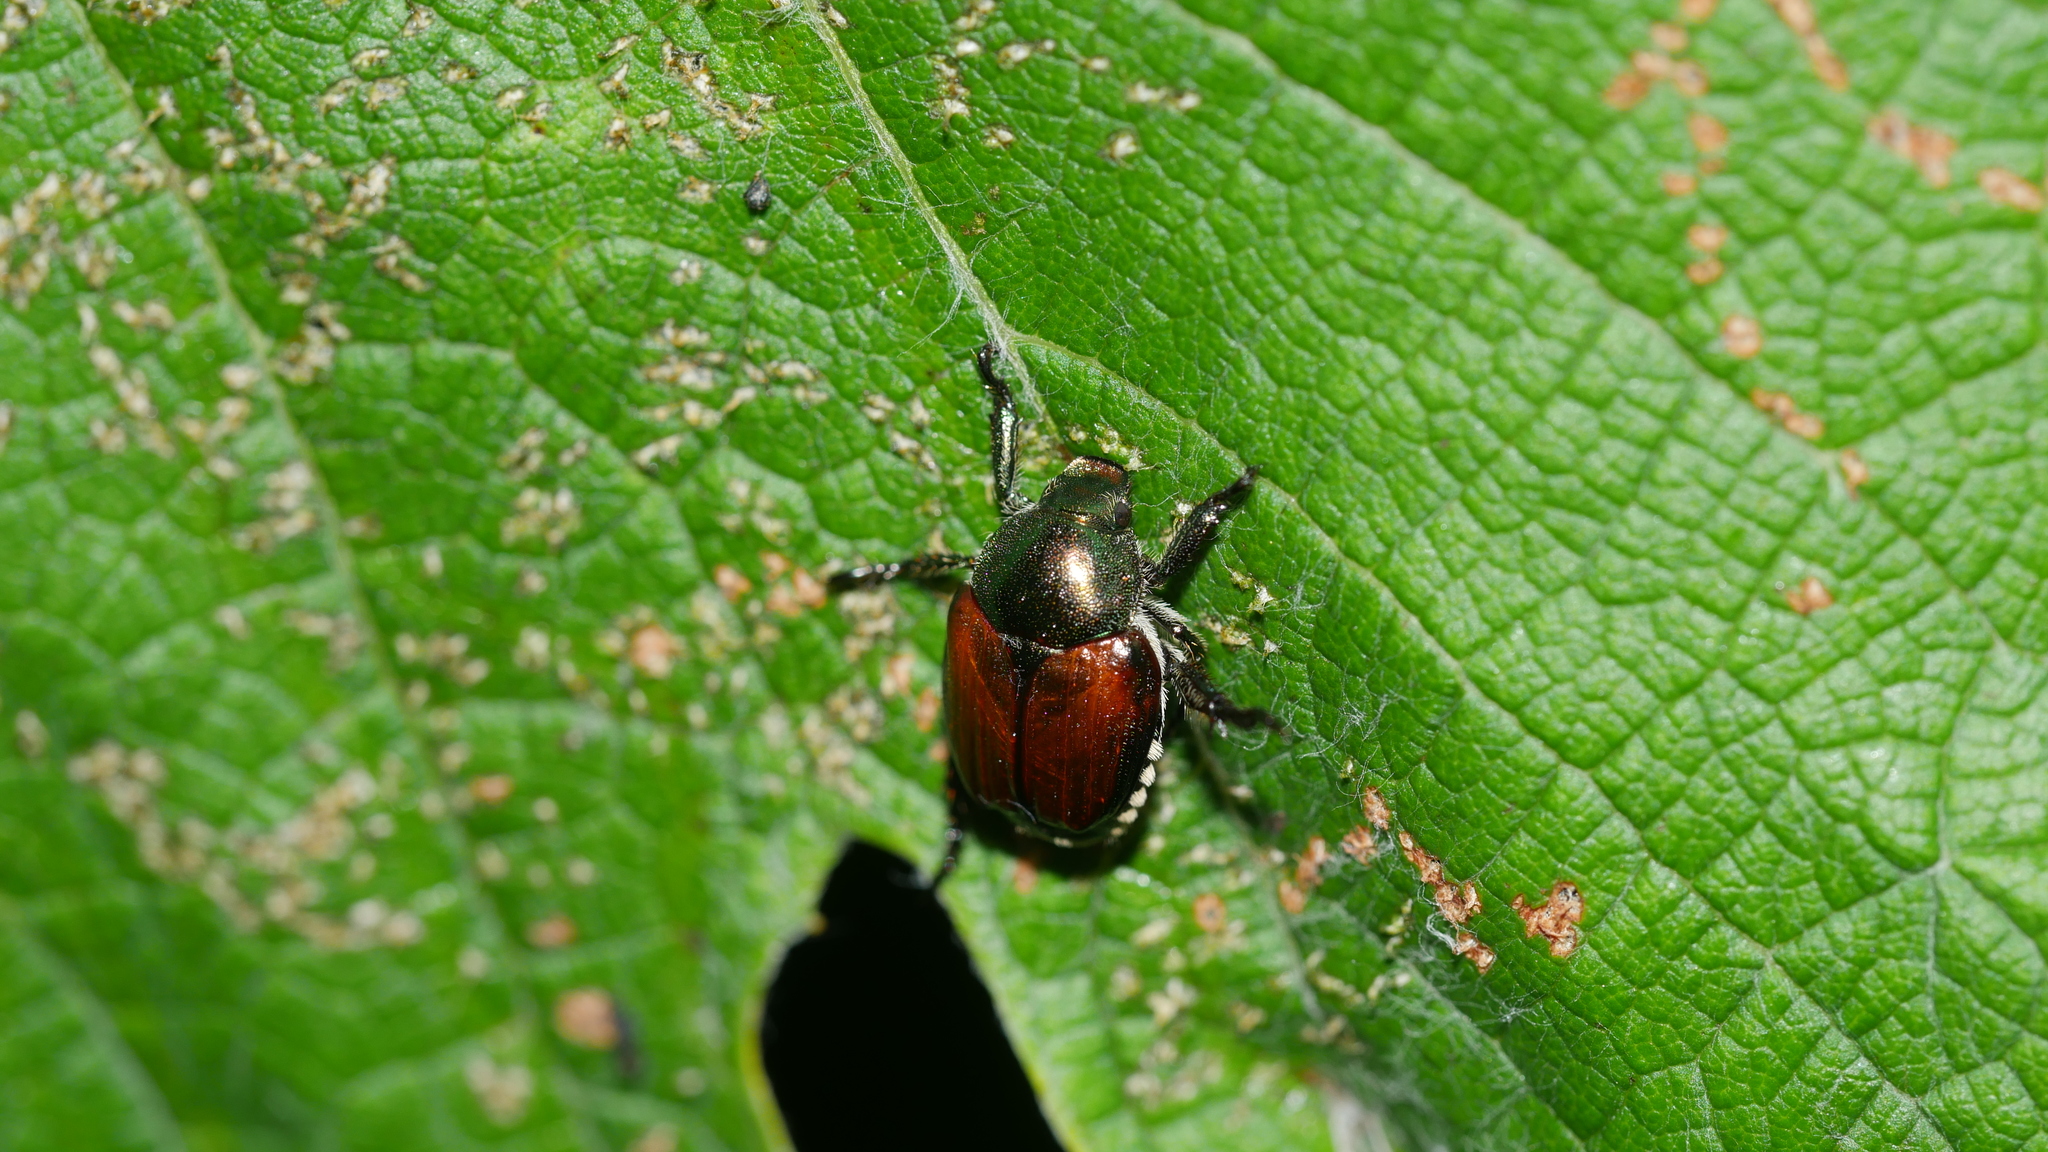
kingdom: Animalia
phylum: Arthropoda
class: Insecta
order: Coleoptera
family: Scarabaeidae
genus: Popillia
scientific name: Popillia japonica
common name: Japanese beetle
